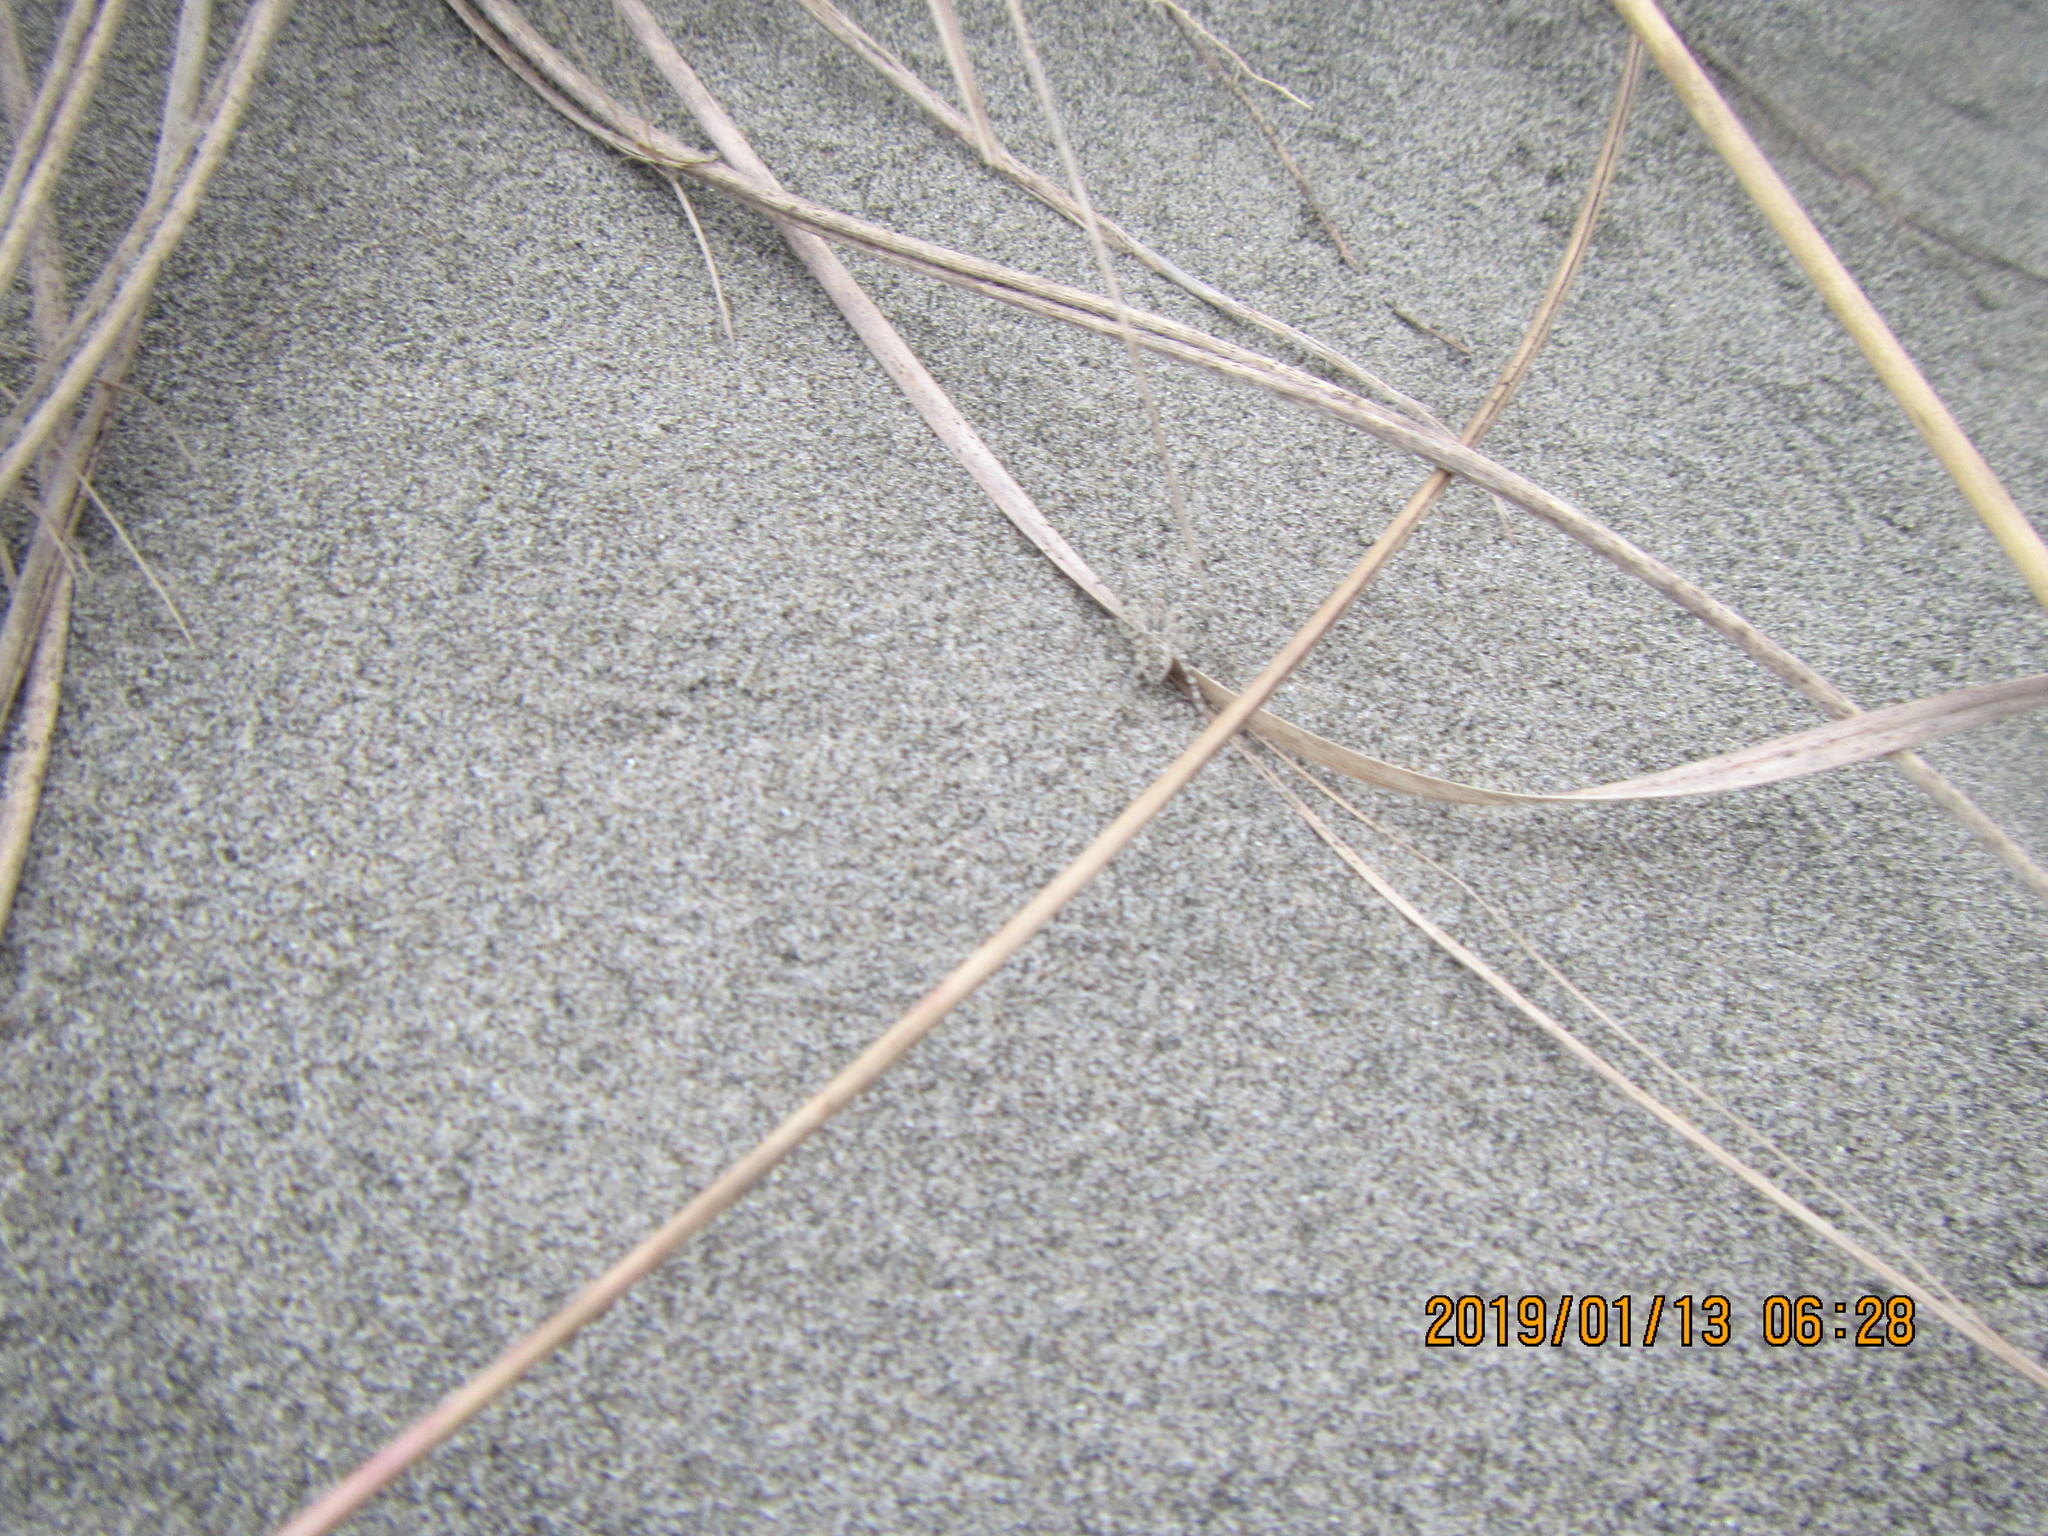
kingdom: Animalia
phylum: Arthropoda
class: Arachnida
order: Araneae
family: Lycosidae
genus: Anoteropsis
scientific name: Anoteropsis litoralis
